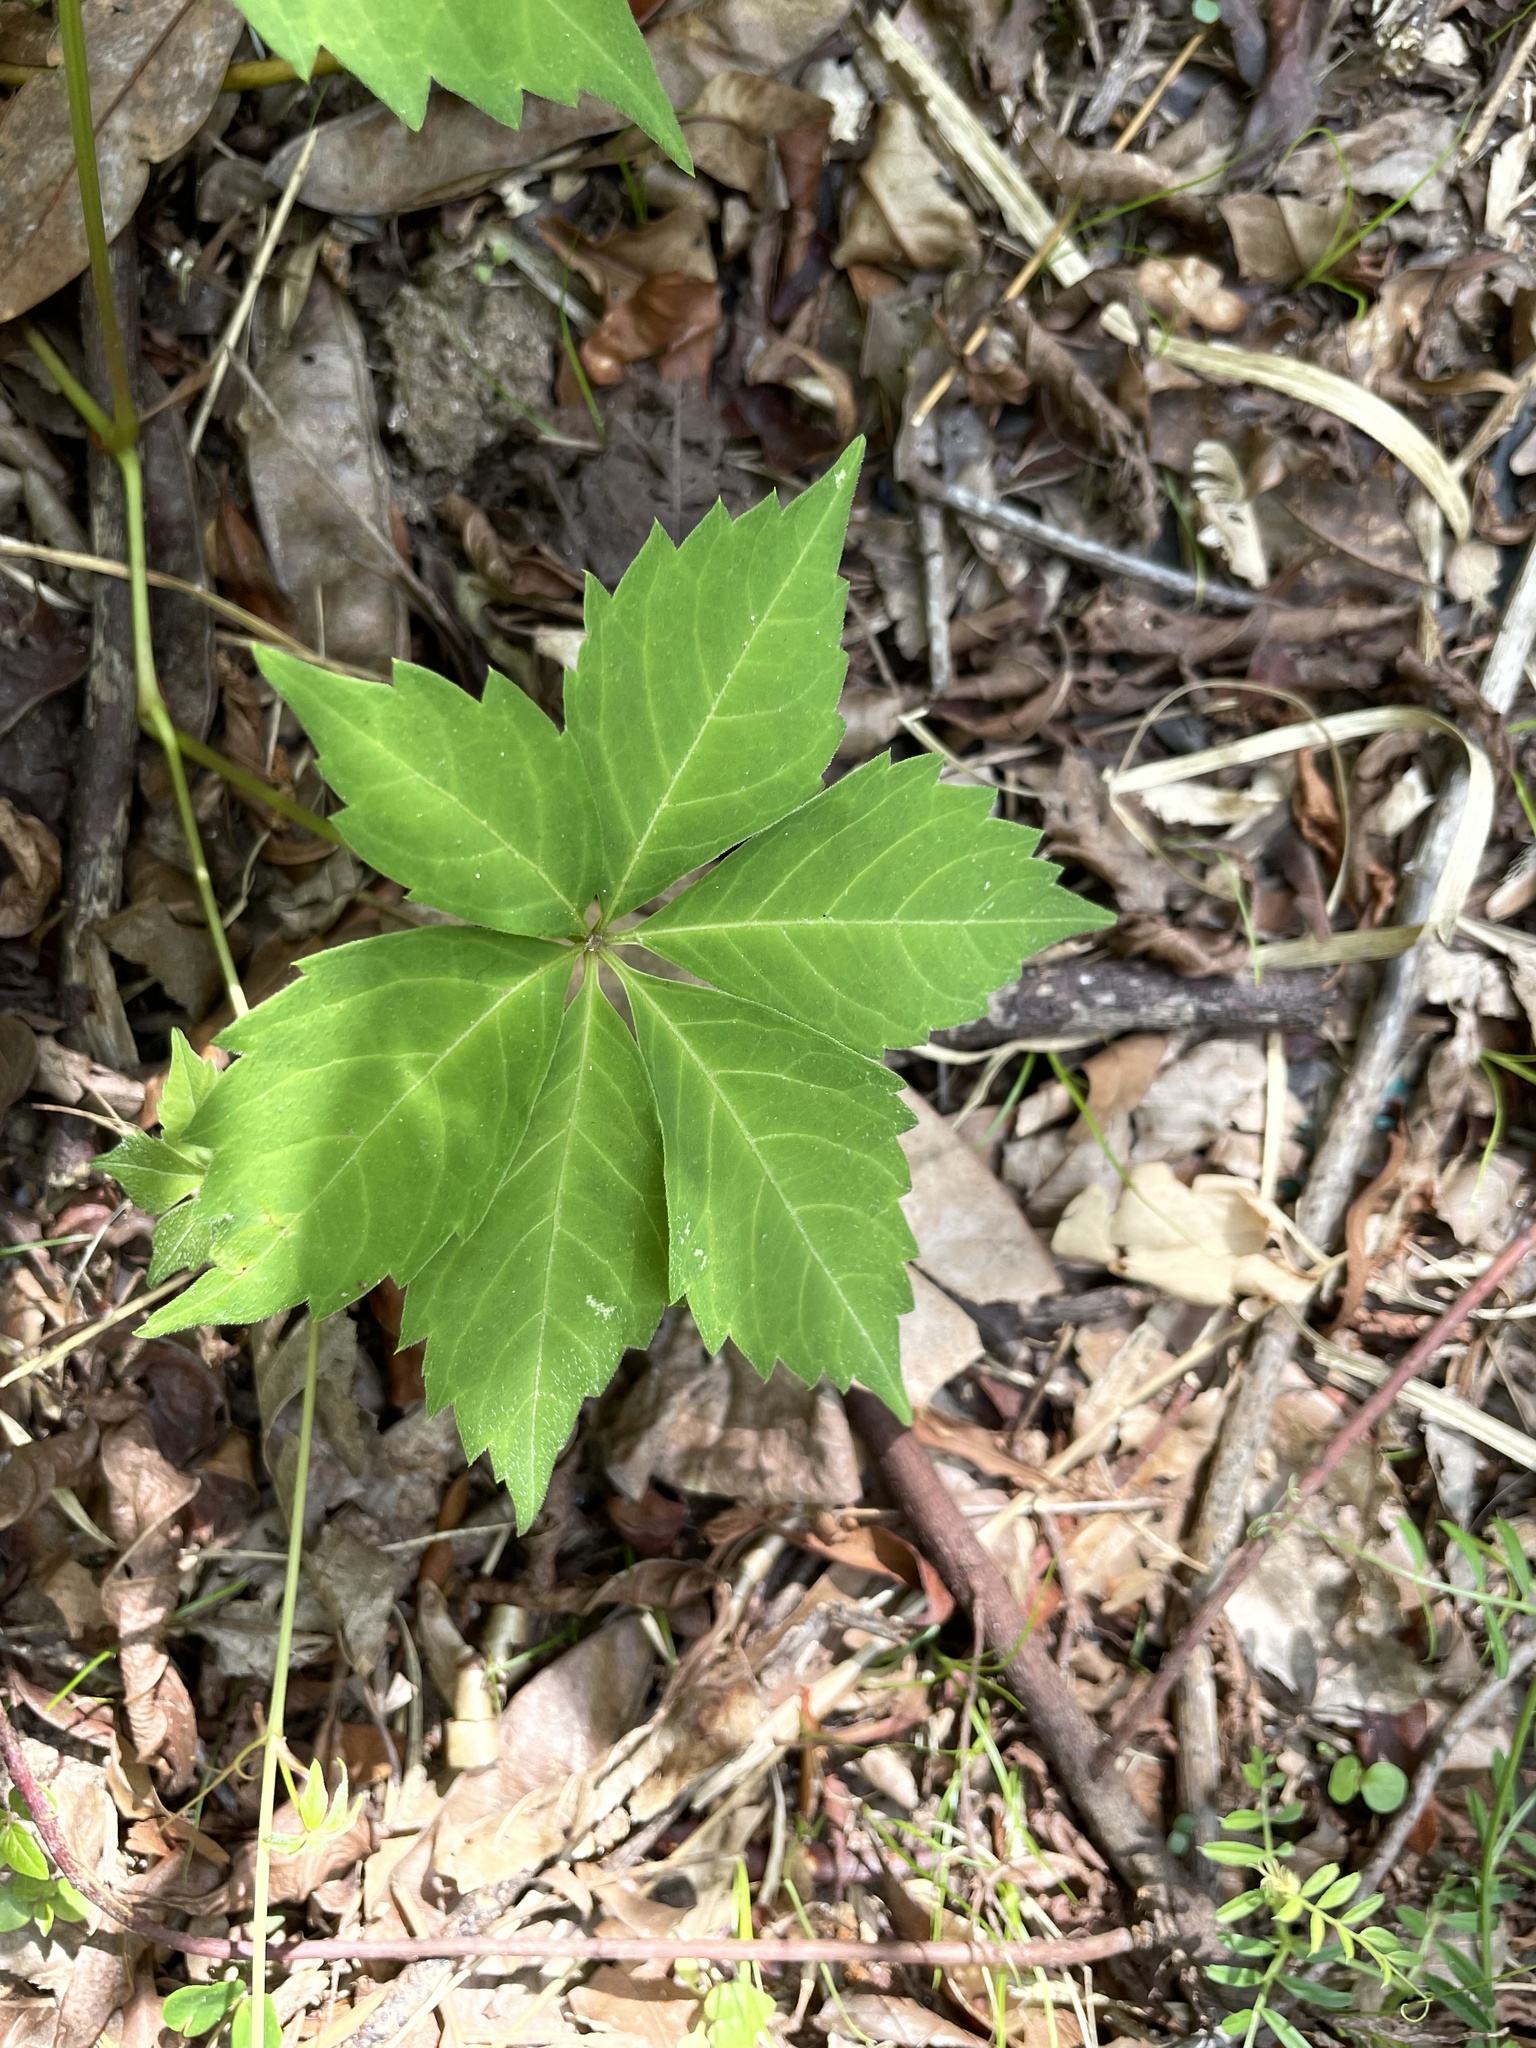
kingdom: Plantae
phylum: Tracheophyta
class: Magnoliopsida
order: Vitales
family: Vitaceae
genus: Parthenocissus
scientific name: Parthenocissus quinquefolia
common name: Virginia-creeper
